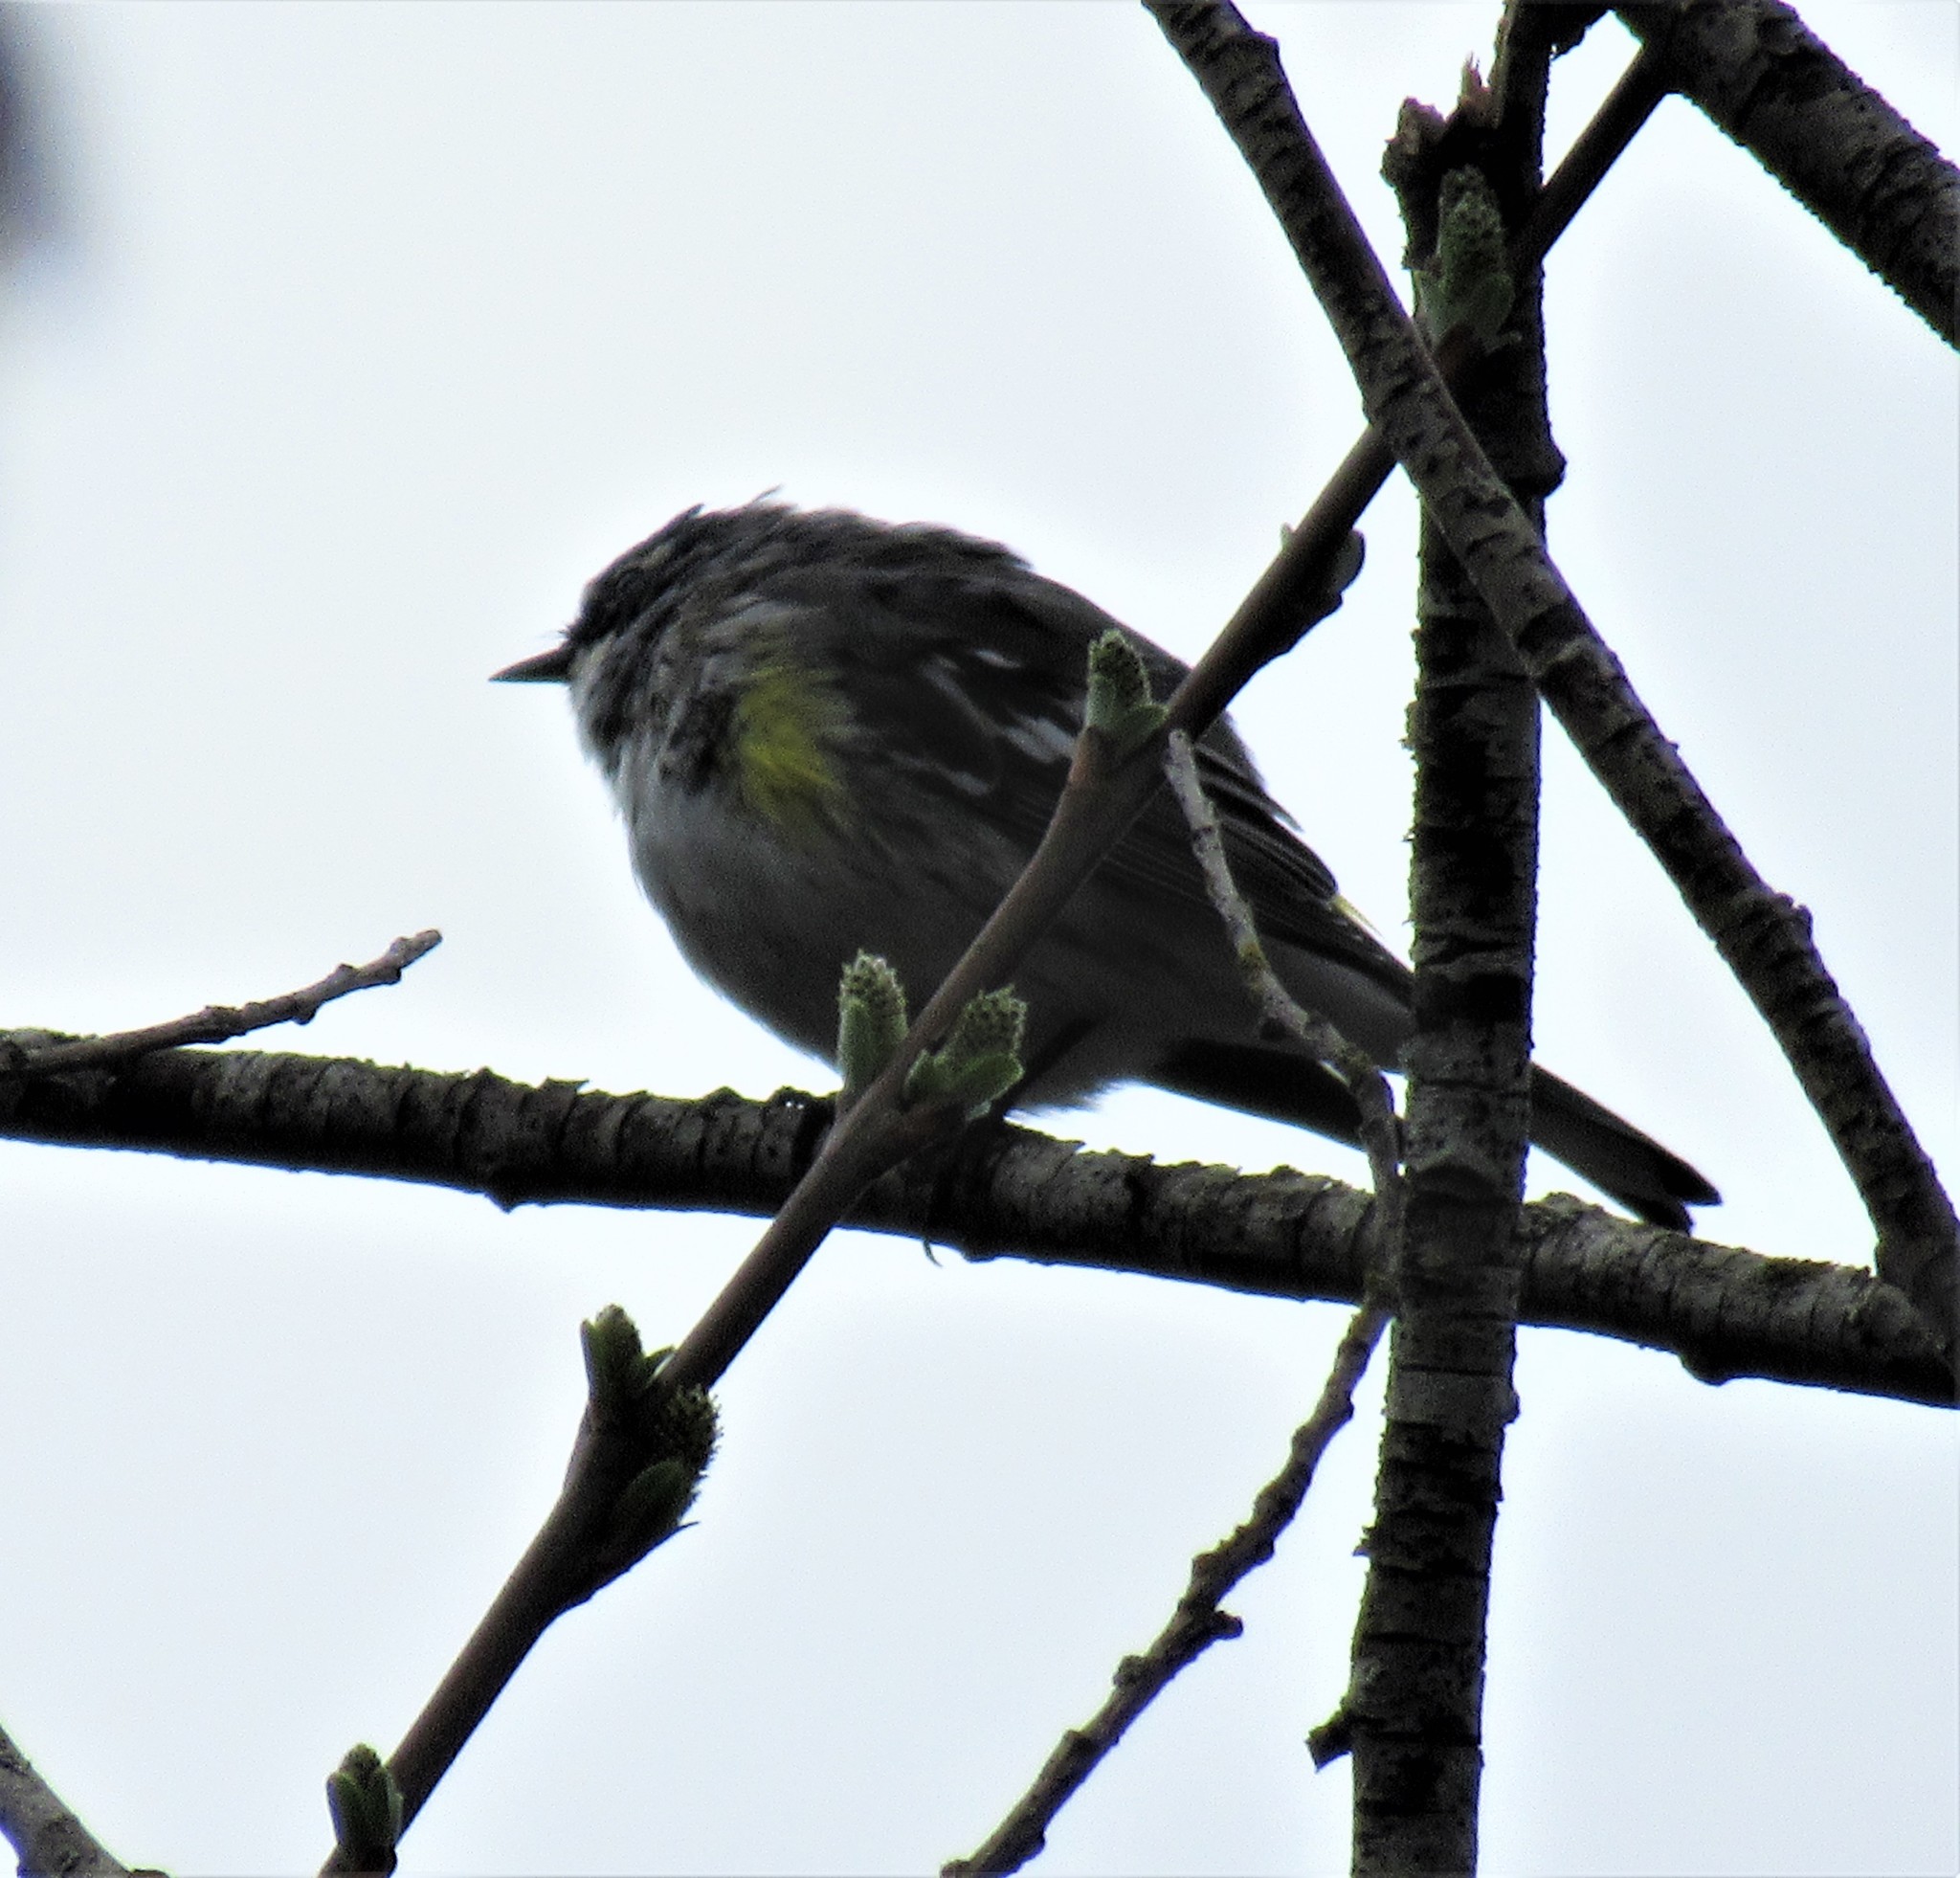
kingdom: Animalia
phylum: Chordata
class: Aves
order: Passeriformes
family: Parulidae
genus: Setophaga
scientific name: Setophaga coronata
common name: Myrtle warbler
